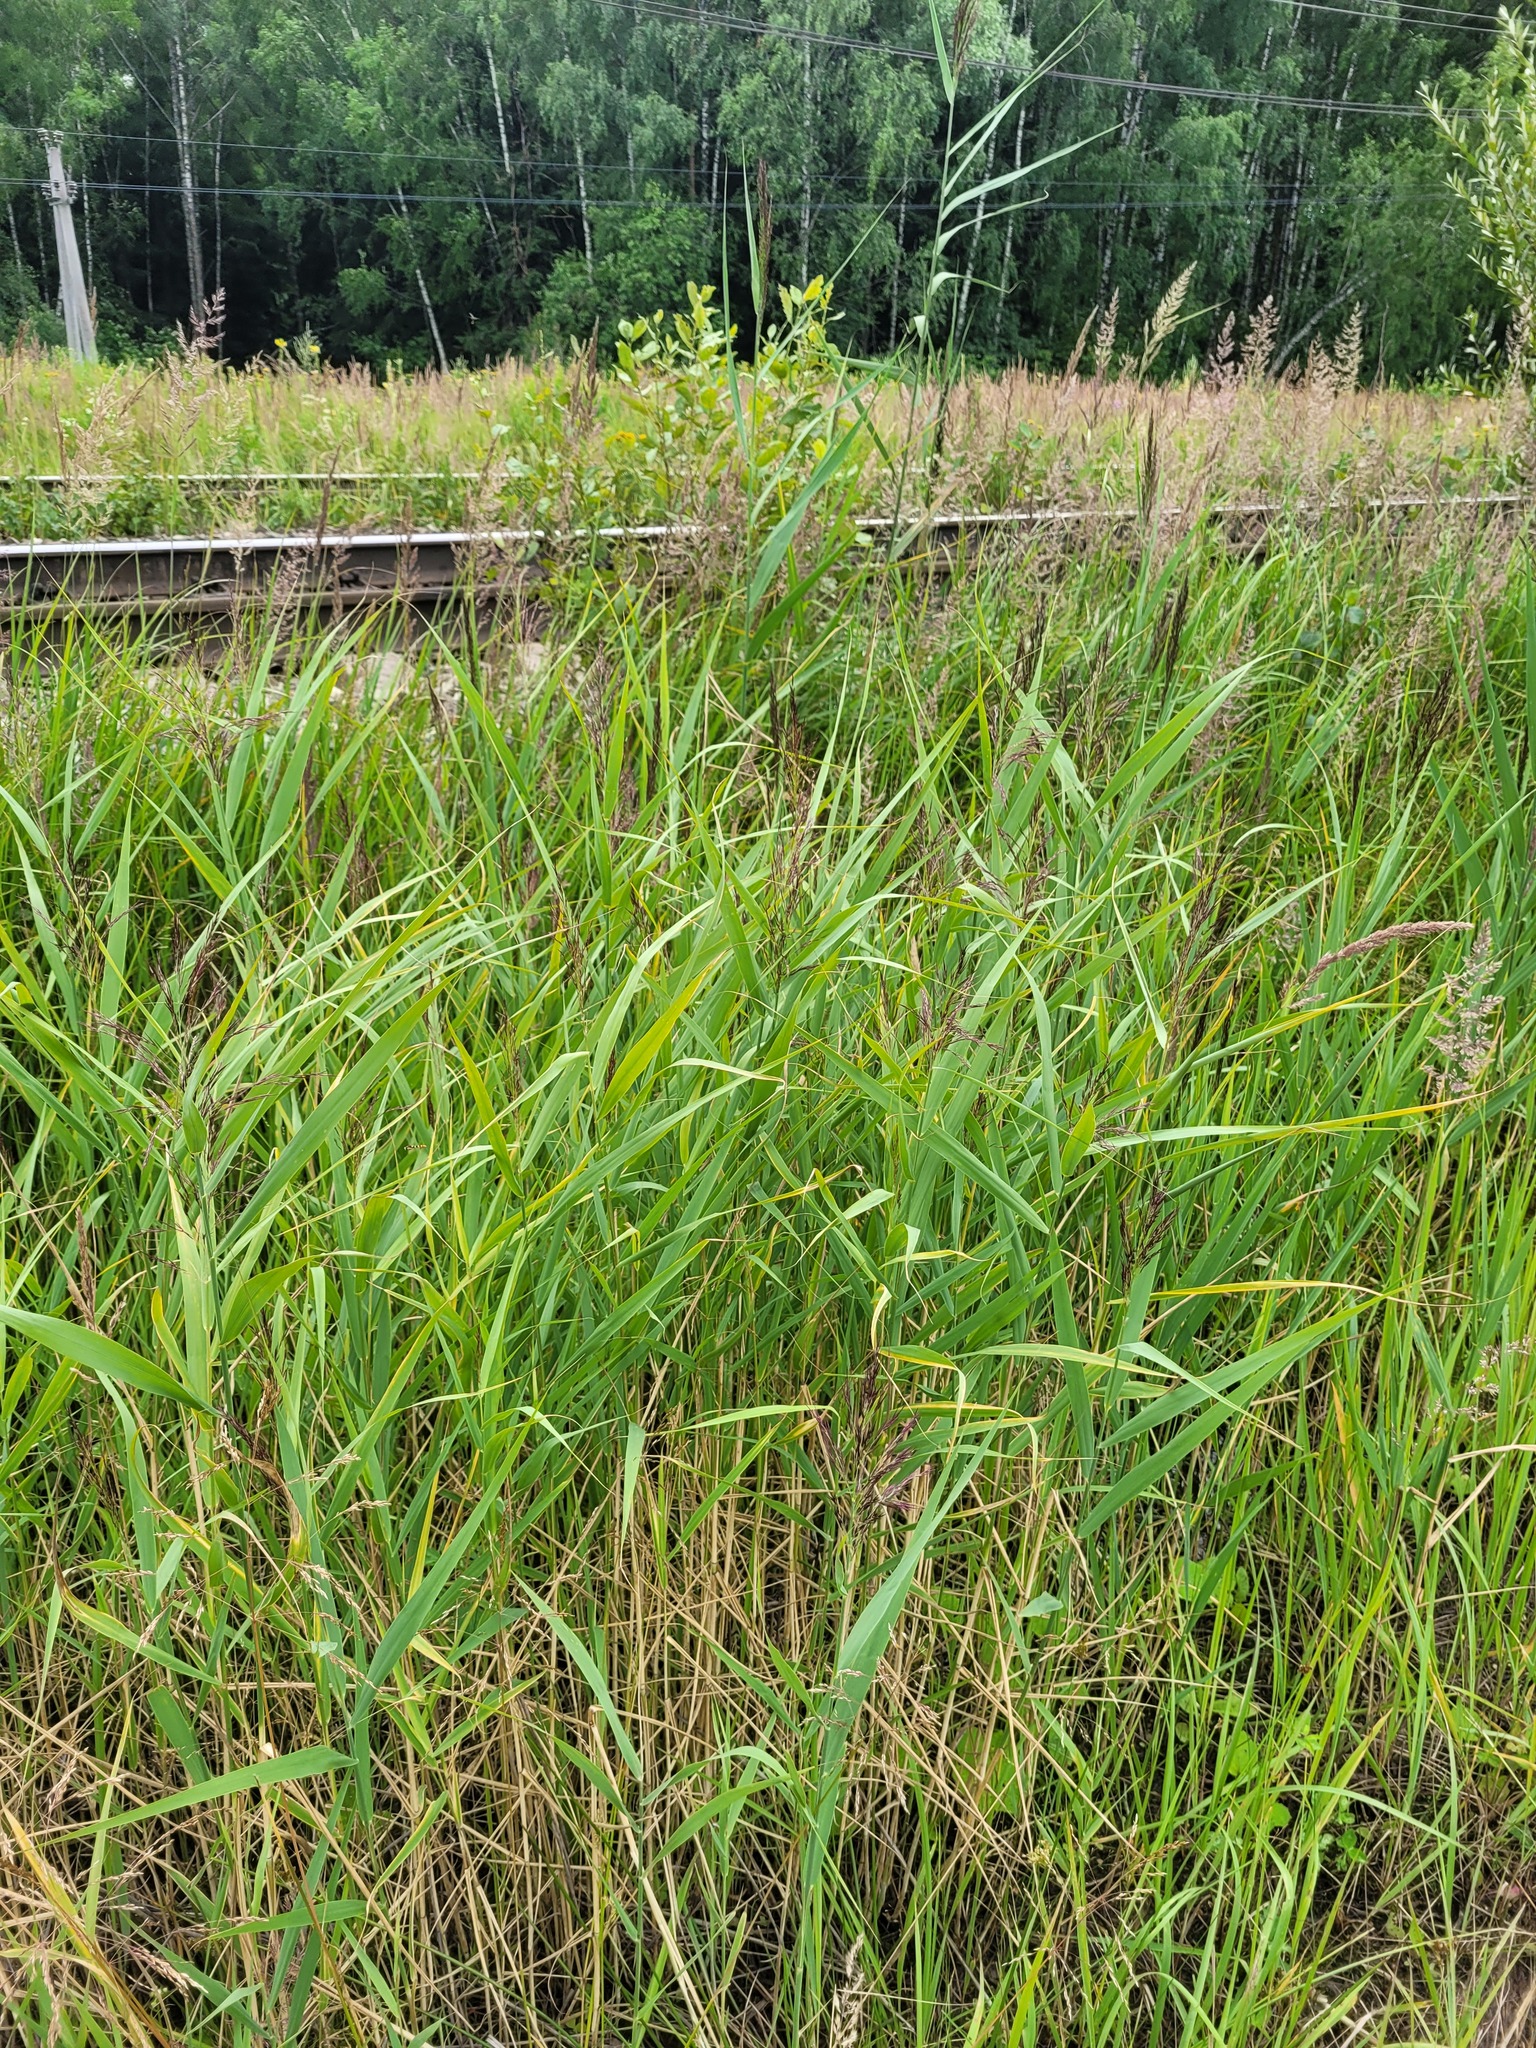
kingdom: Plantae
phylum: Tracheophyta
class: Liliopsida
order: Poales
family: Poaceae
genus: Phragmites
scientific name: Phragmites australis
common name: Common reed
